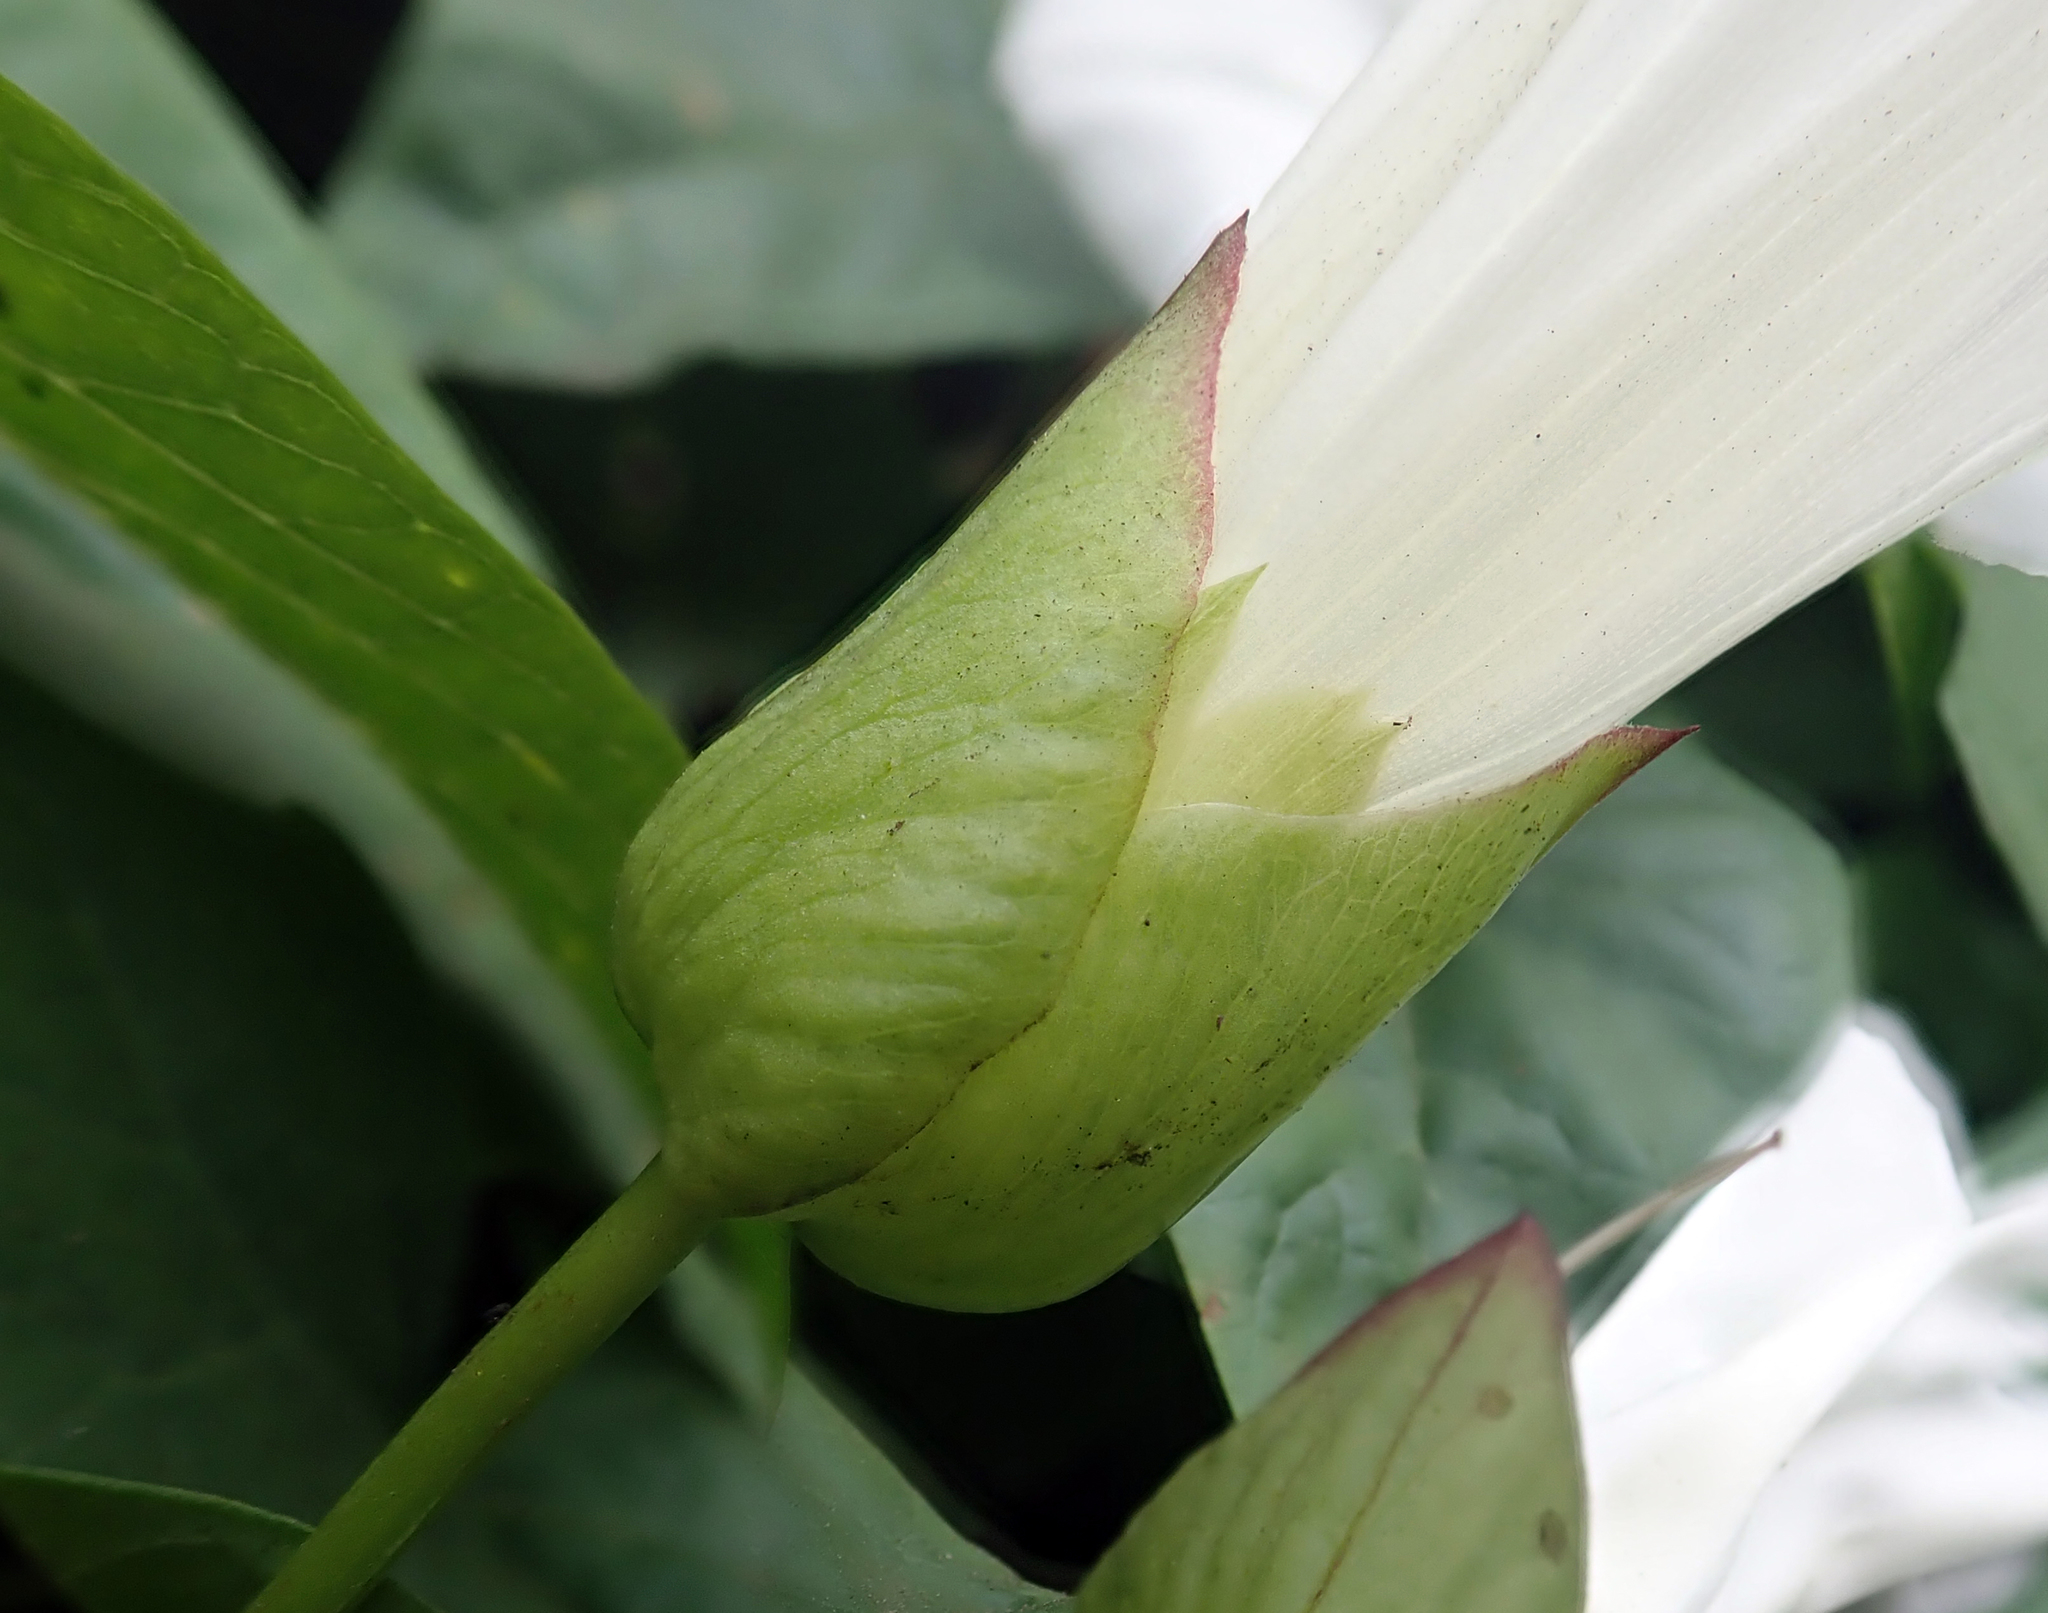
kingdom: Plantae
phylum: Tracheophyta
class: Magnoliopsida
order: Solanales
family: Convolvulaceae
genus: Calystegia
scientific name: Calystegia silvatica
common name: Large bindweed
